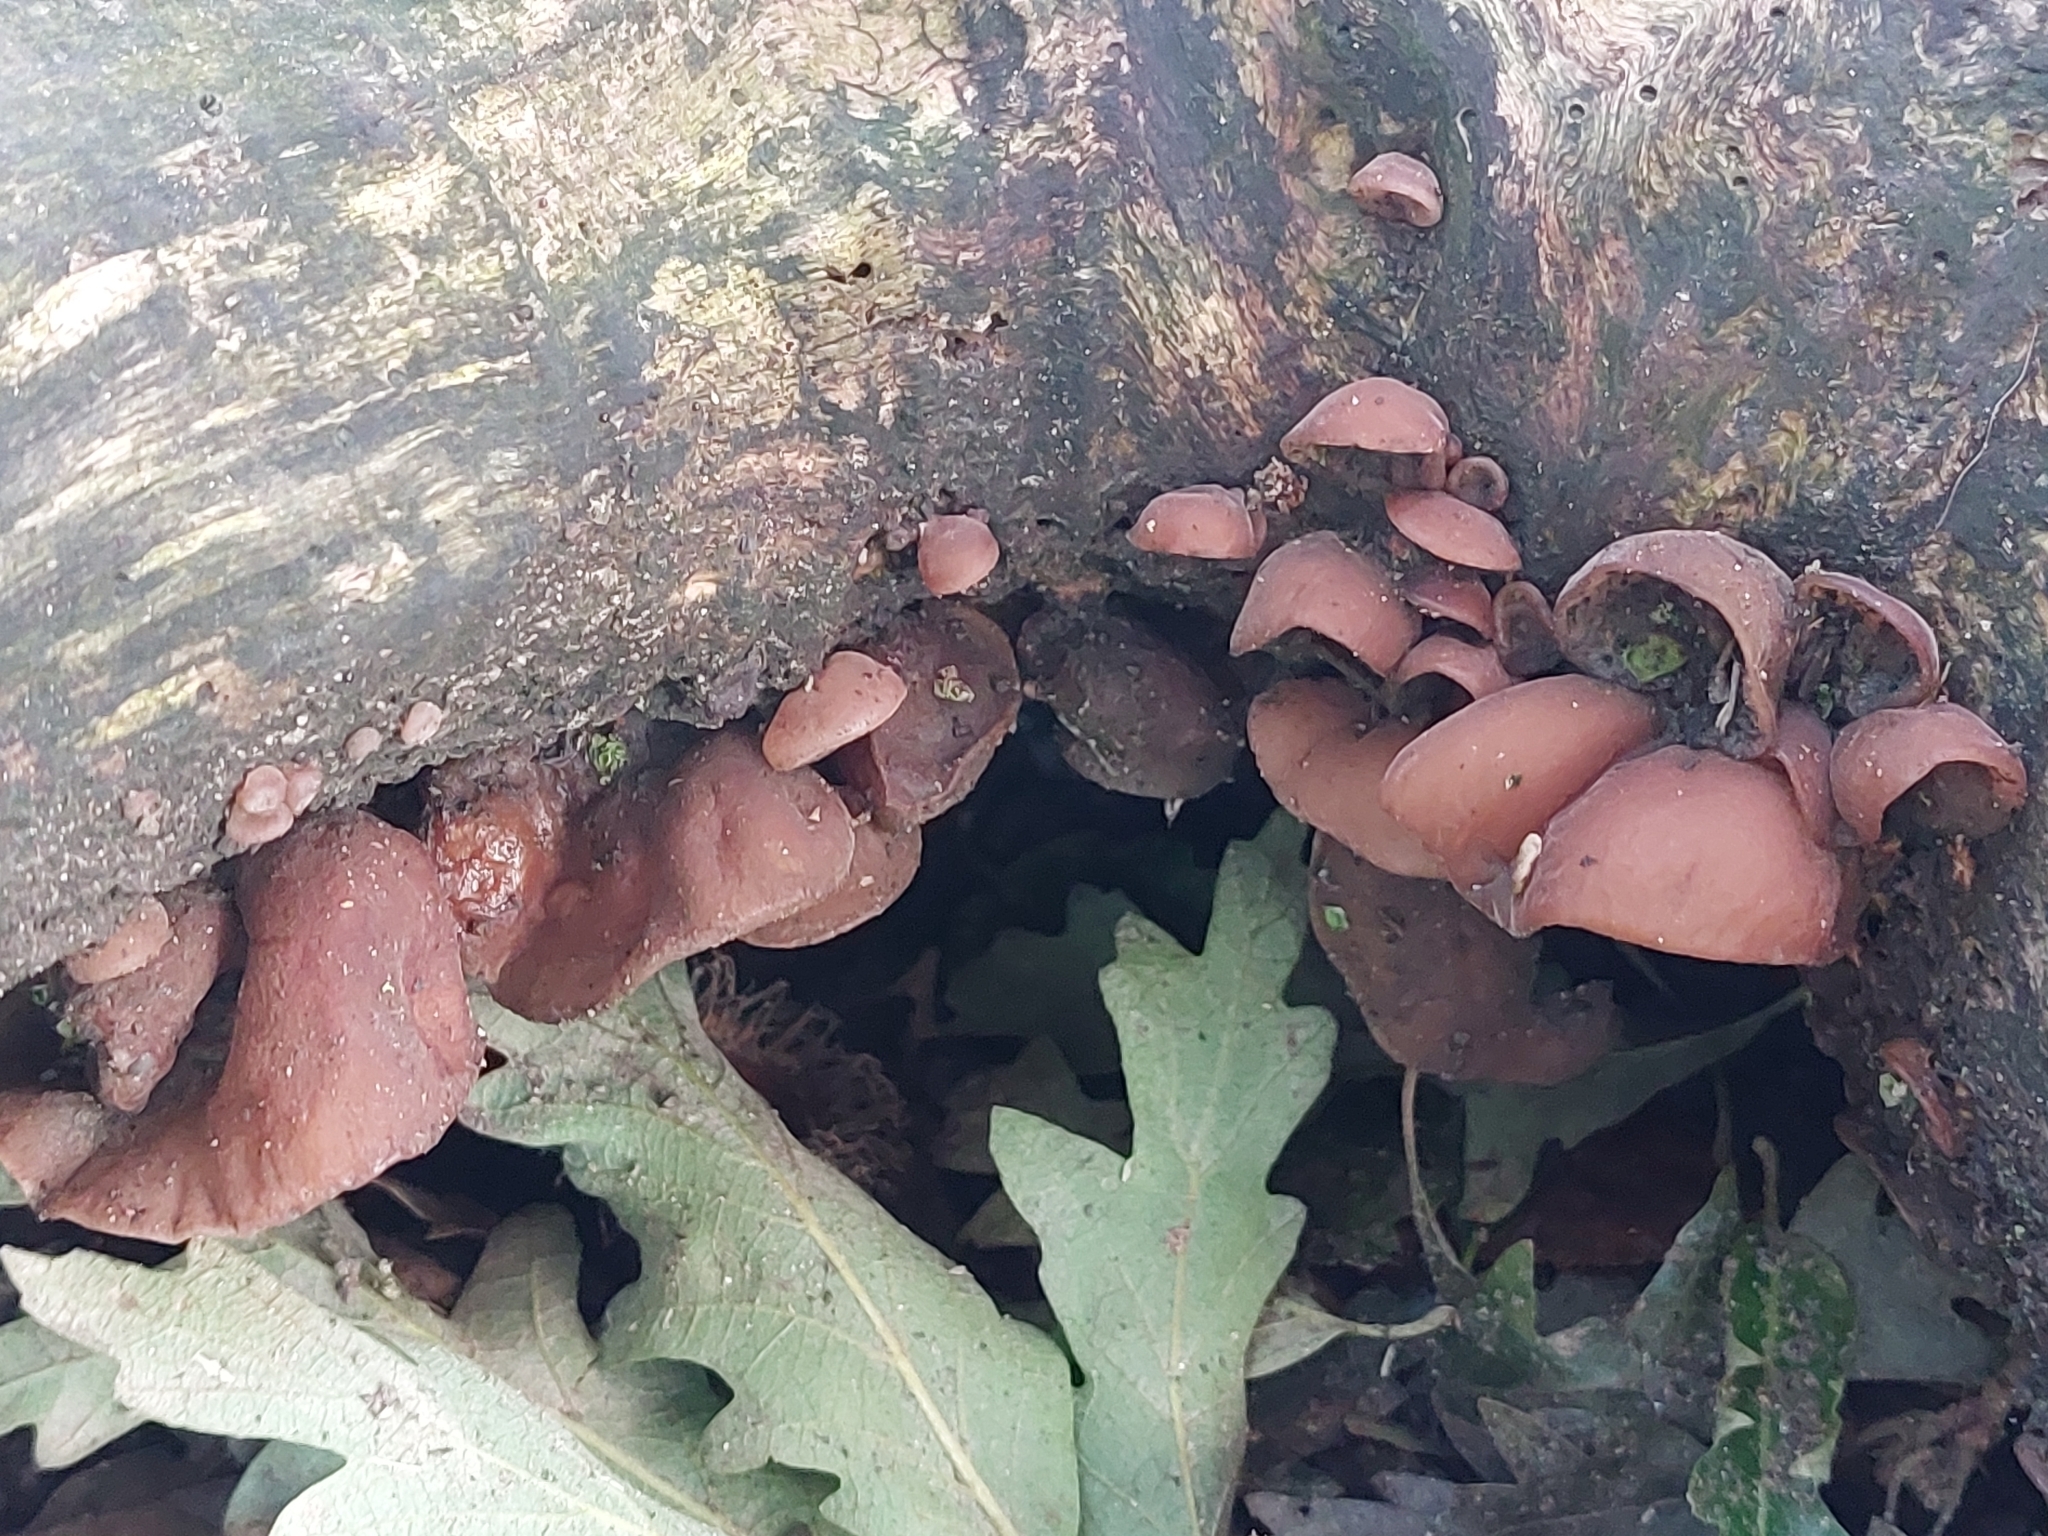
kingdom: Fungi
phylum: Basidiomycota
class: Agaricomycetes
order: Auriculariales
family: Auriculariaceae
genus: Auricularia
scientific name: Auricularia auricula-judae
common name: Jelly ear
